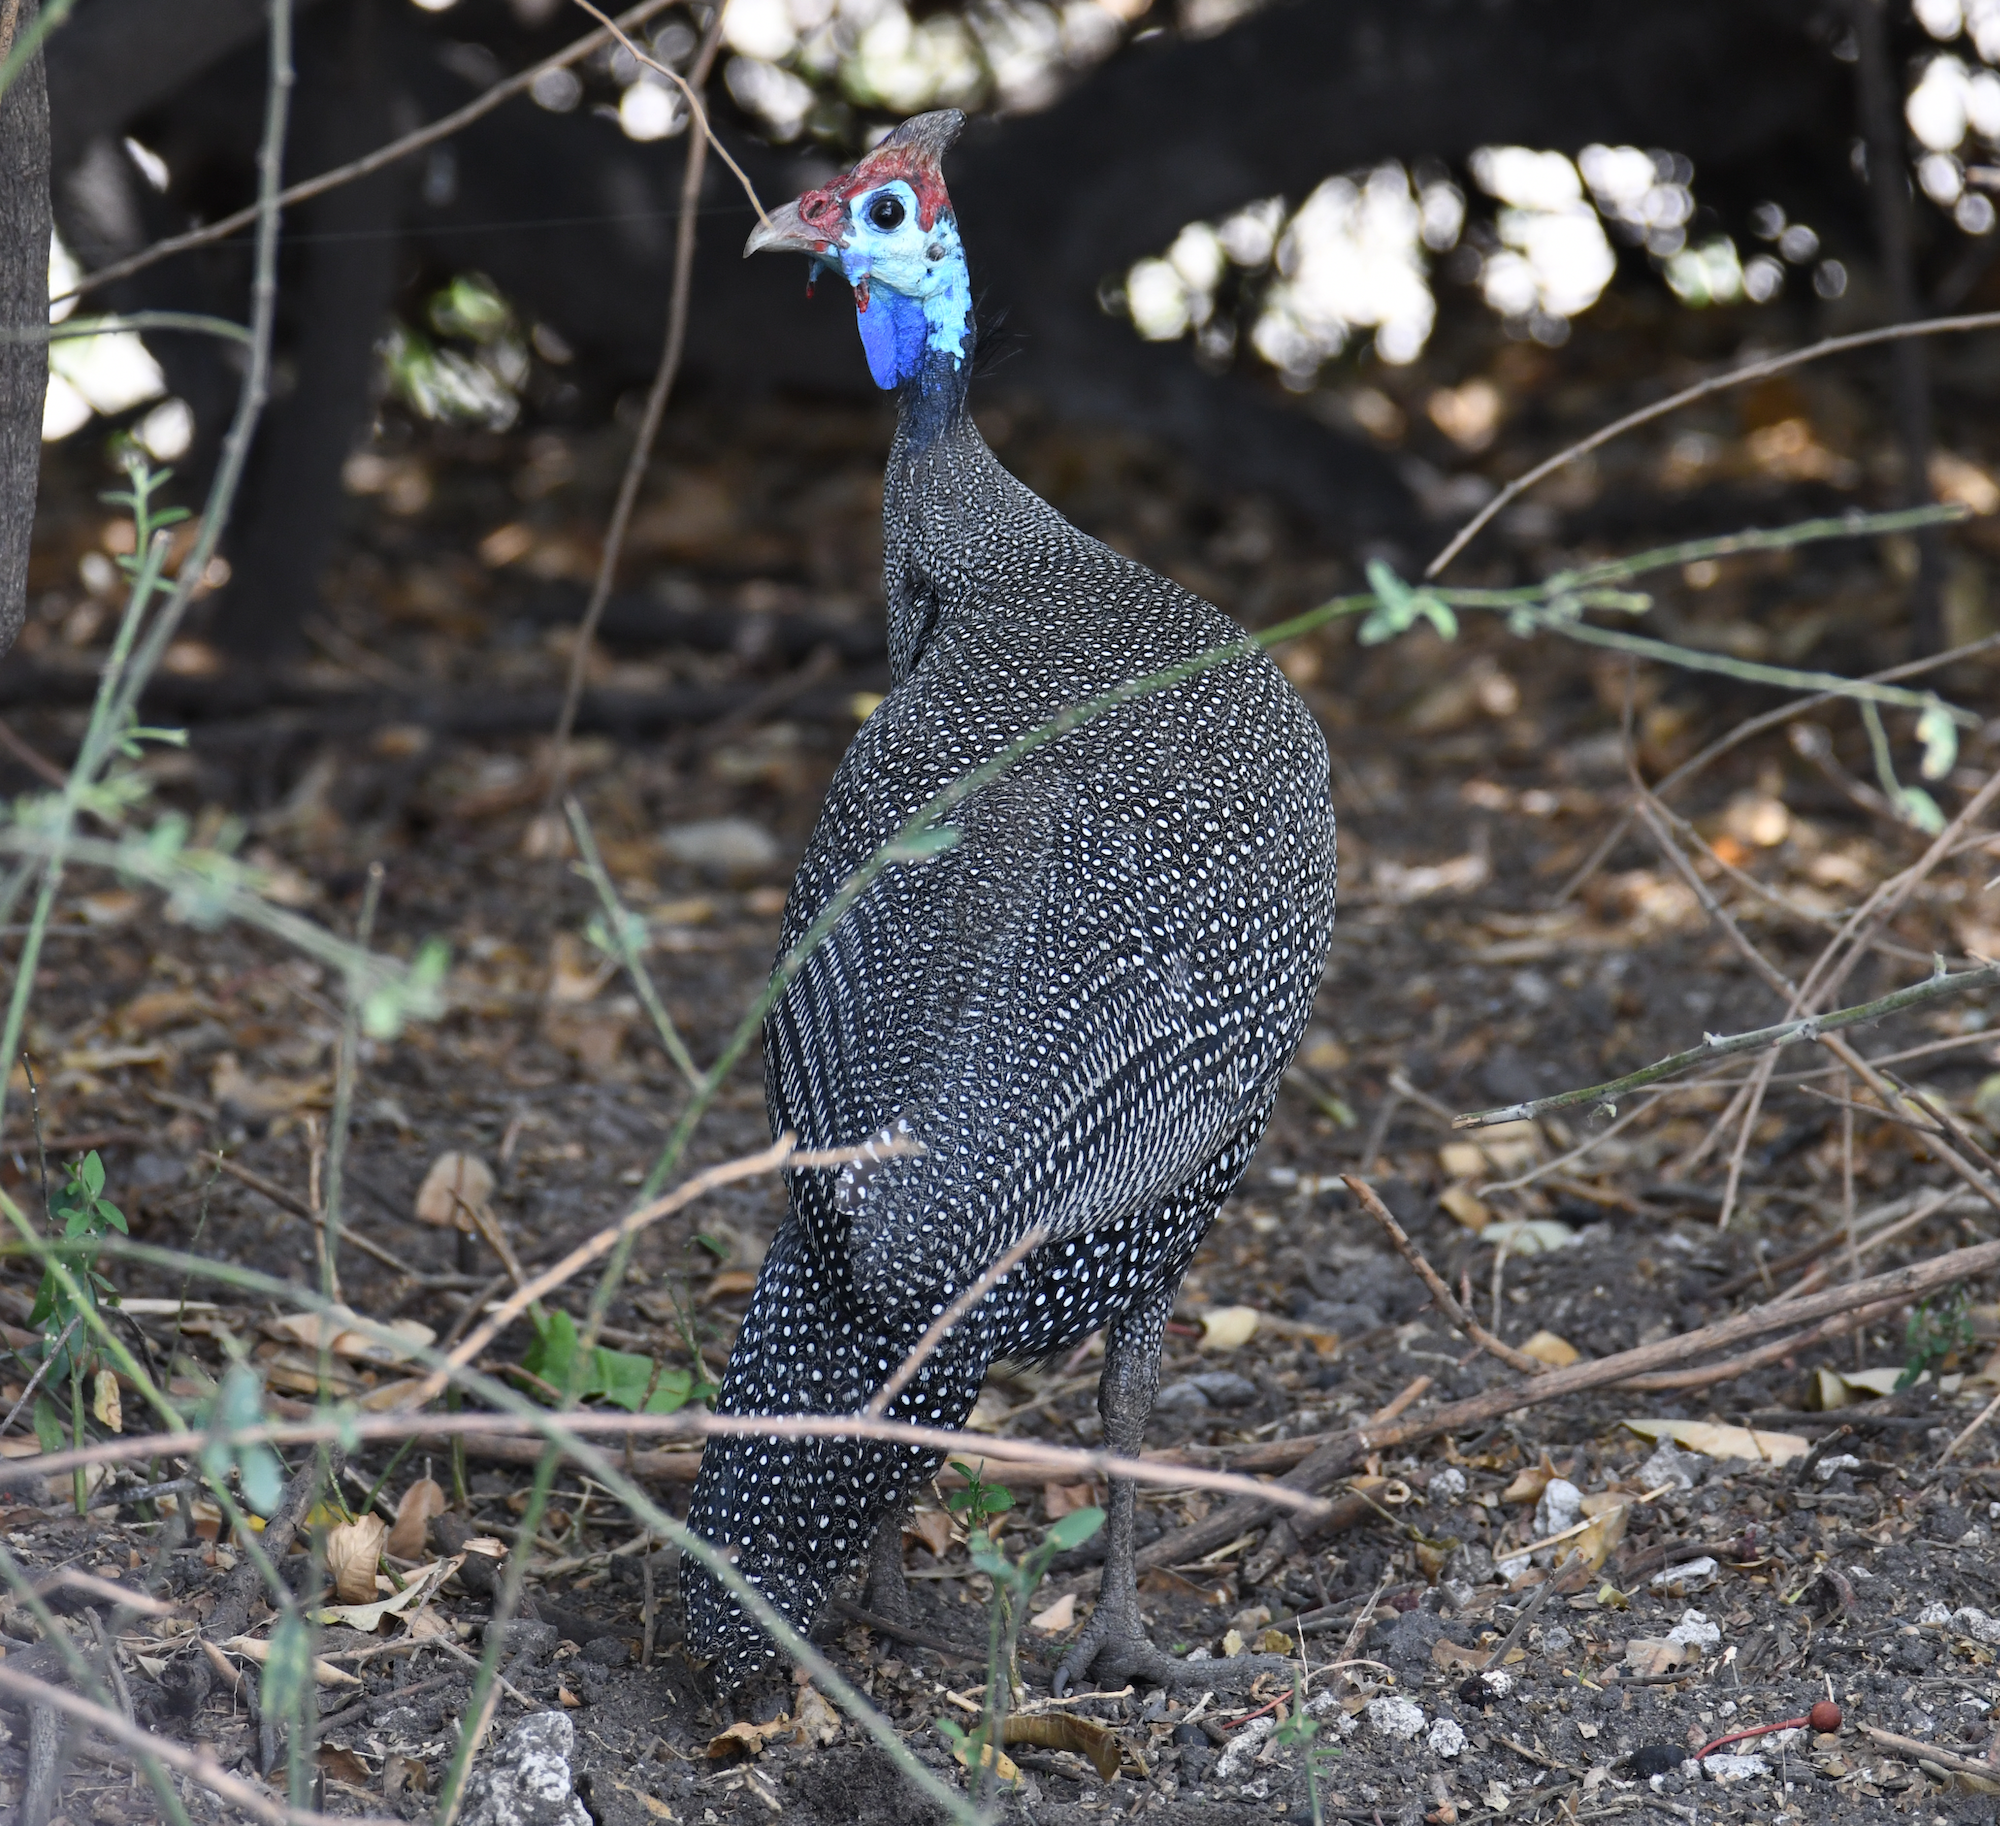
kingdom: Animalia
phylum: Chordata
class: Aves
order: Galliformes
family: Numididae
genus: Numida
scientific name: Numida meleagris
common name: Helmeted guineafowl
